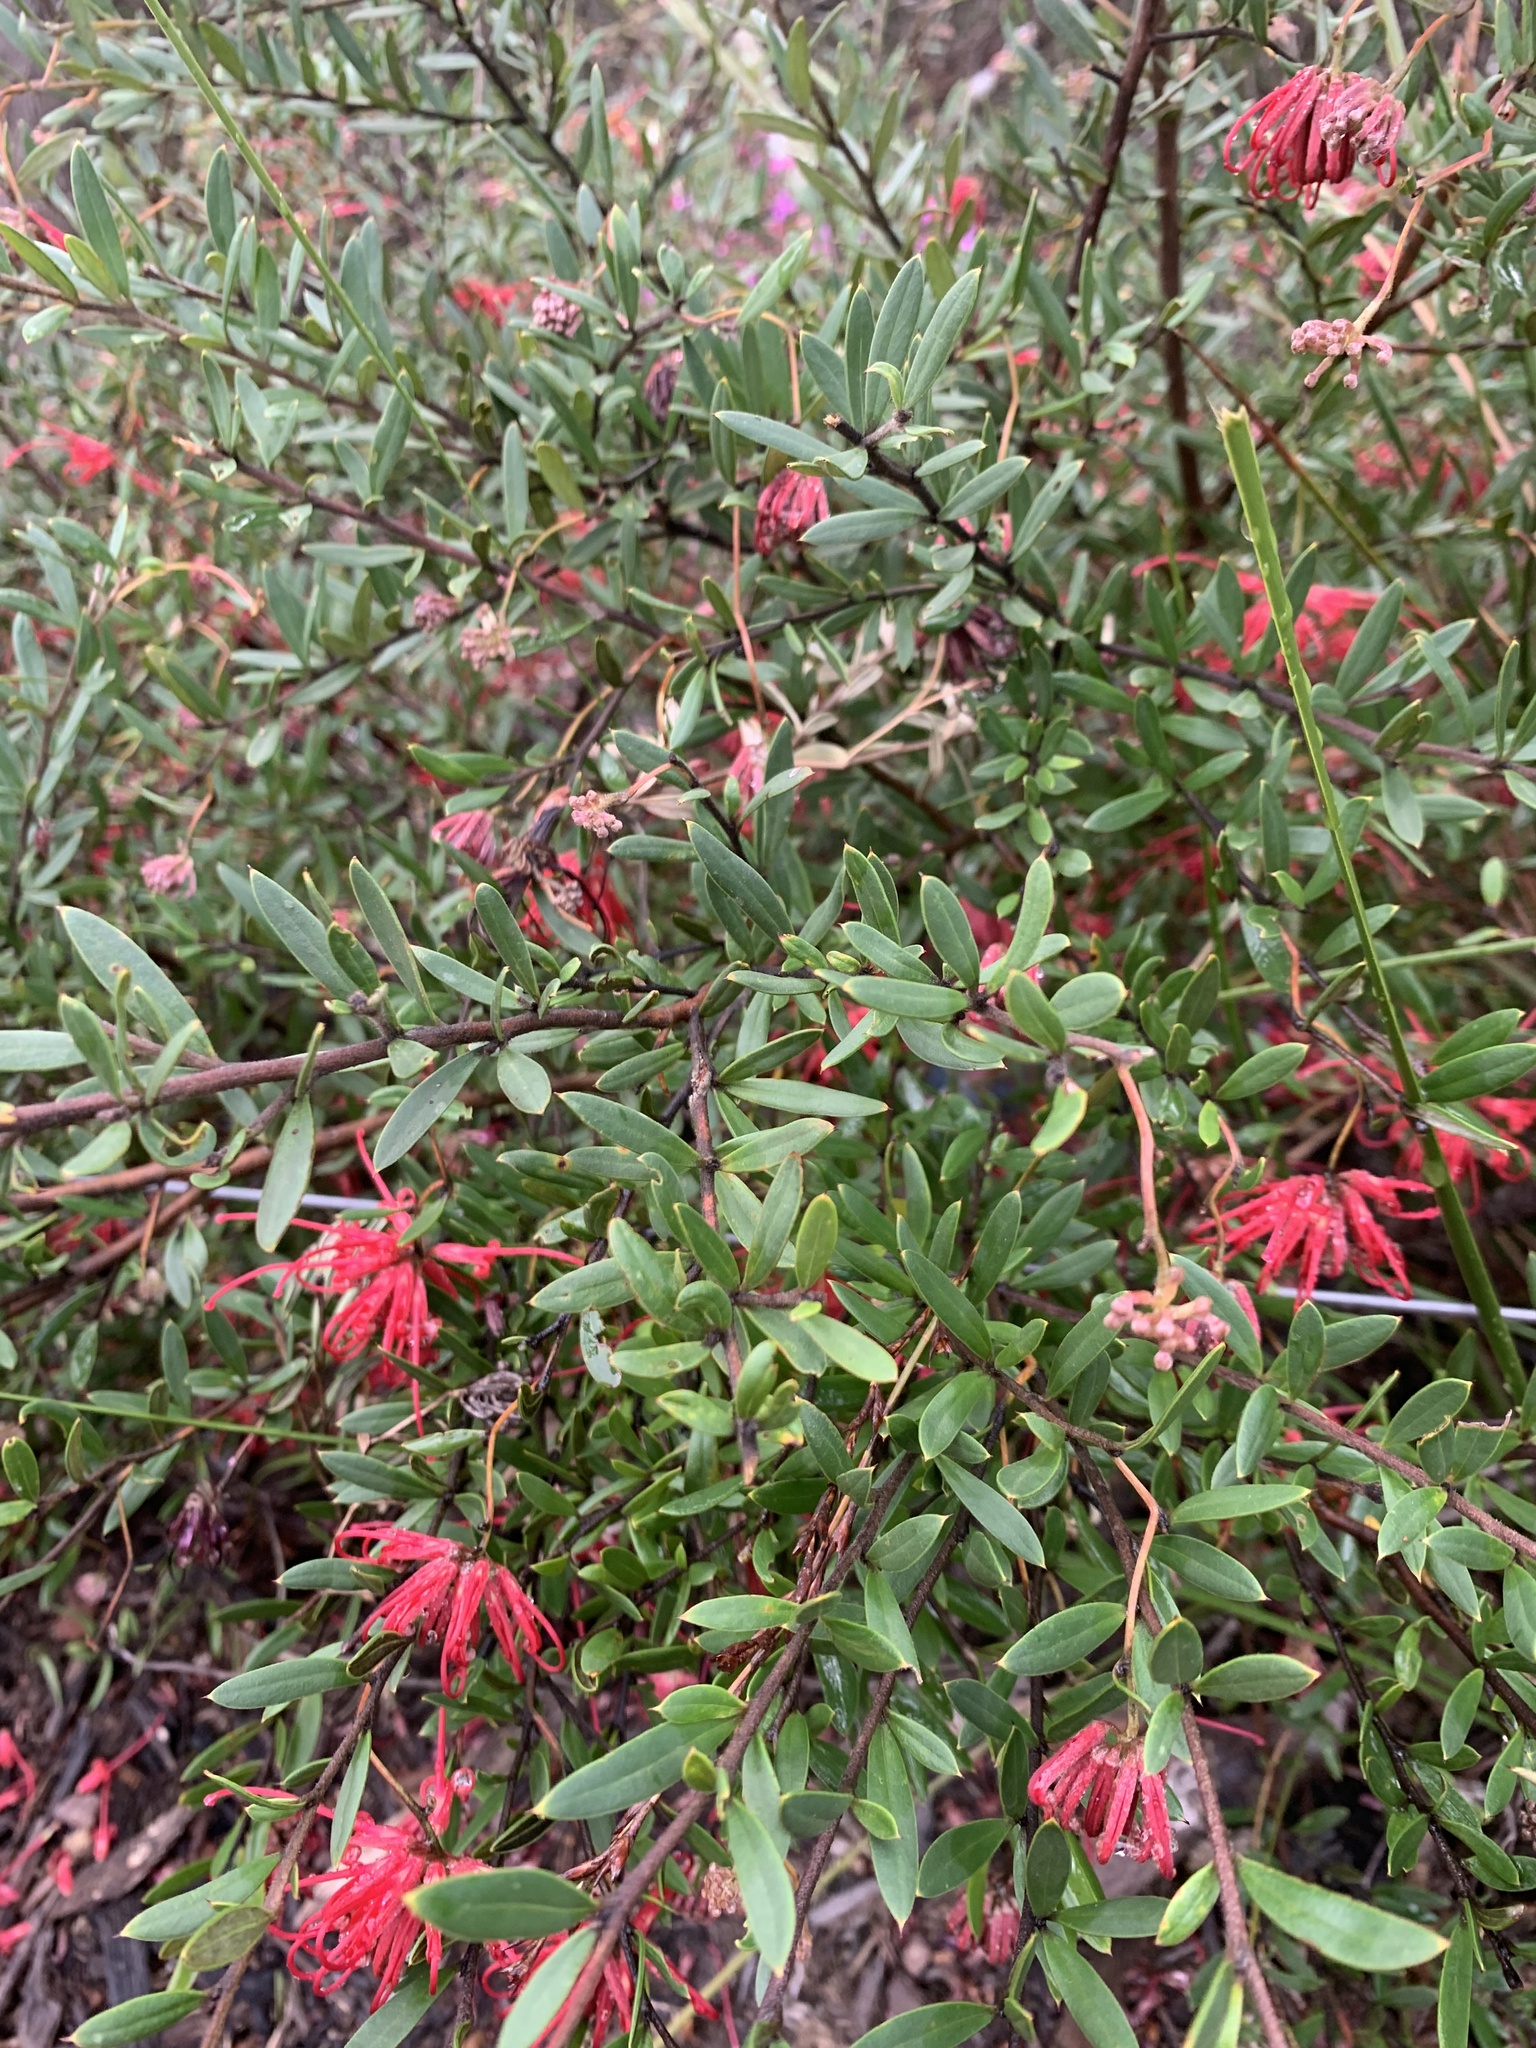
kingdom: Plantae
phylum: Tracheophyta
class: Magnoliopsida
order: Proteales
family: Proteaceae
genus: Grevillea
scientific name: Grevillea speciosa
